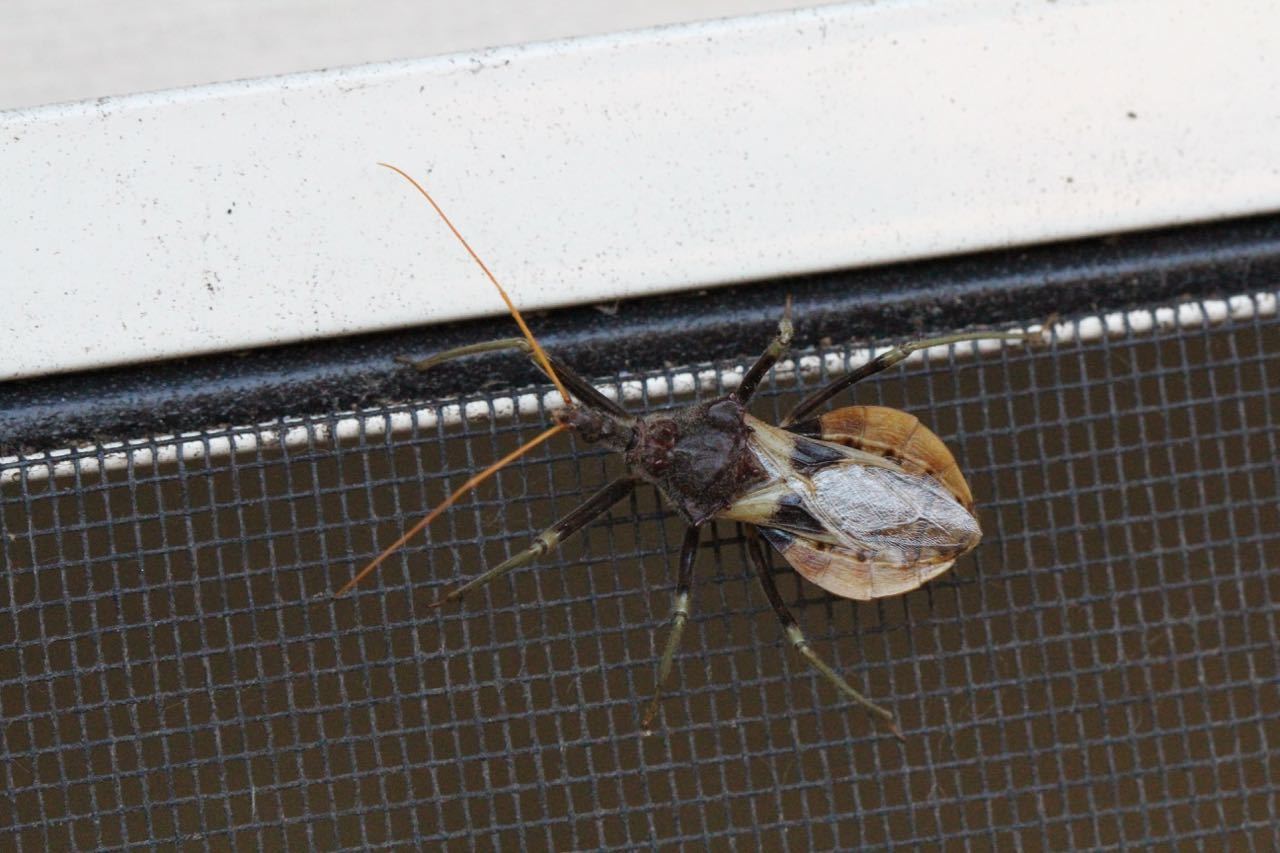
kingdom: Animalia
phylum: Arthropoda
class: Insecta
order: Hemiptera
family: Reduviidae
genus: Pristhesancus
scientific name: Pristhesancus plagipennis
